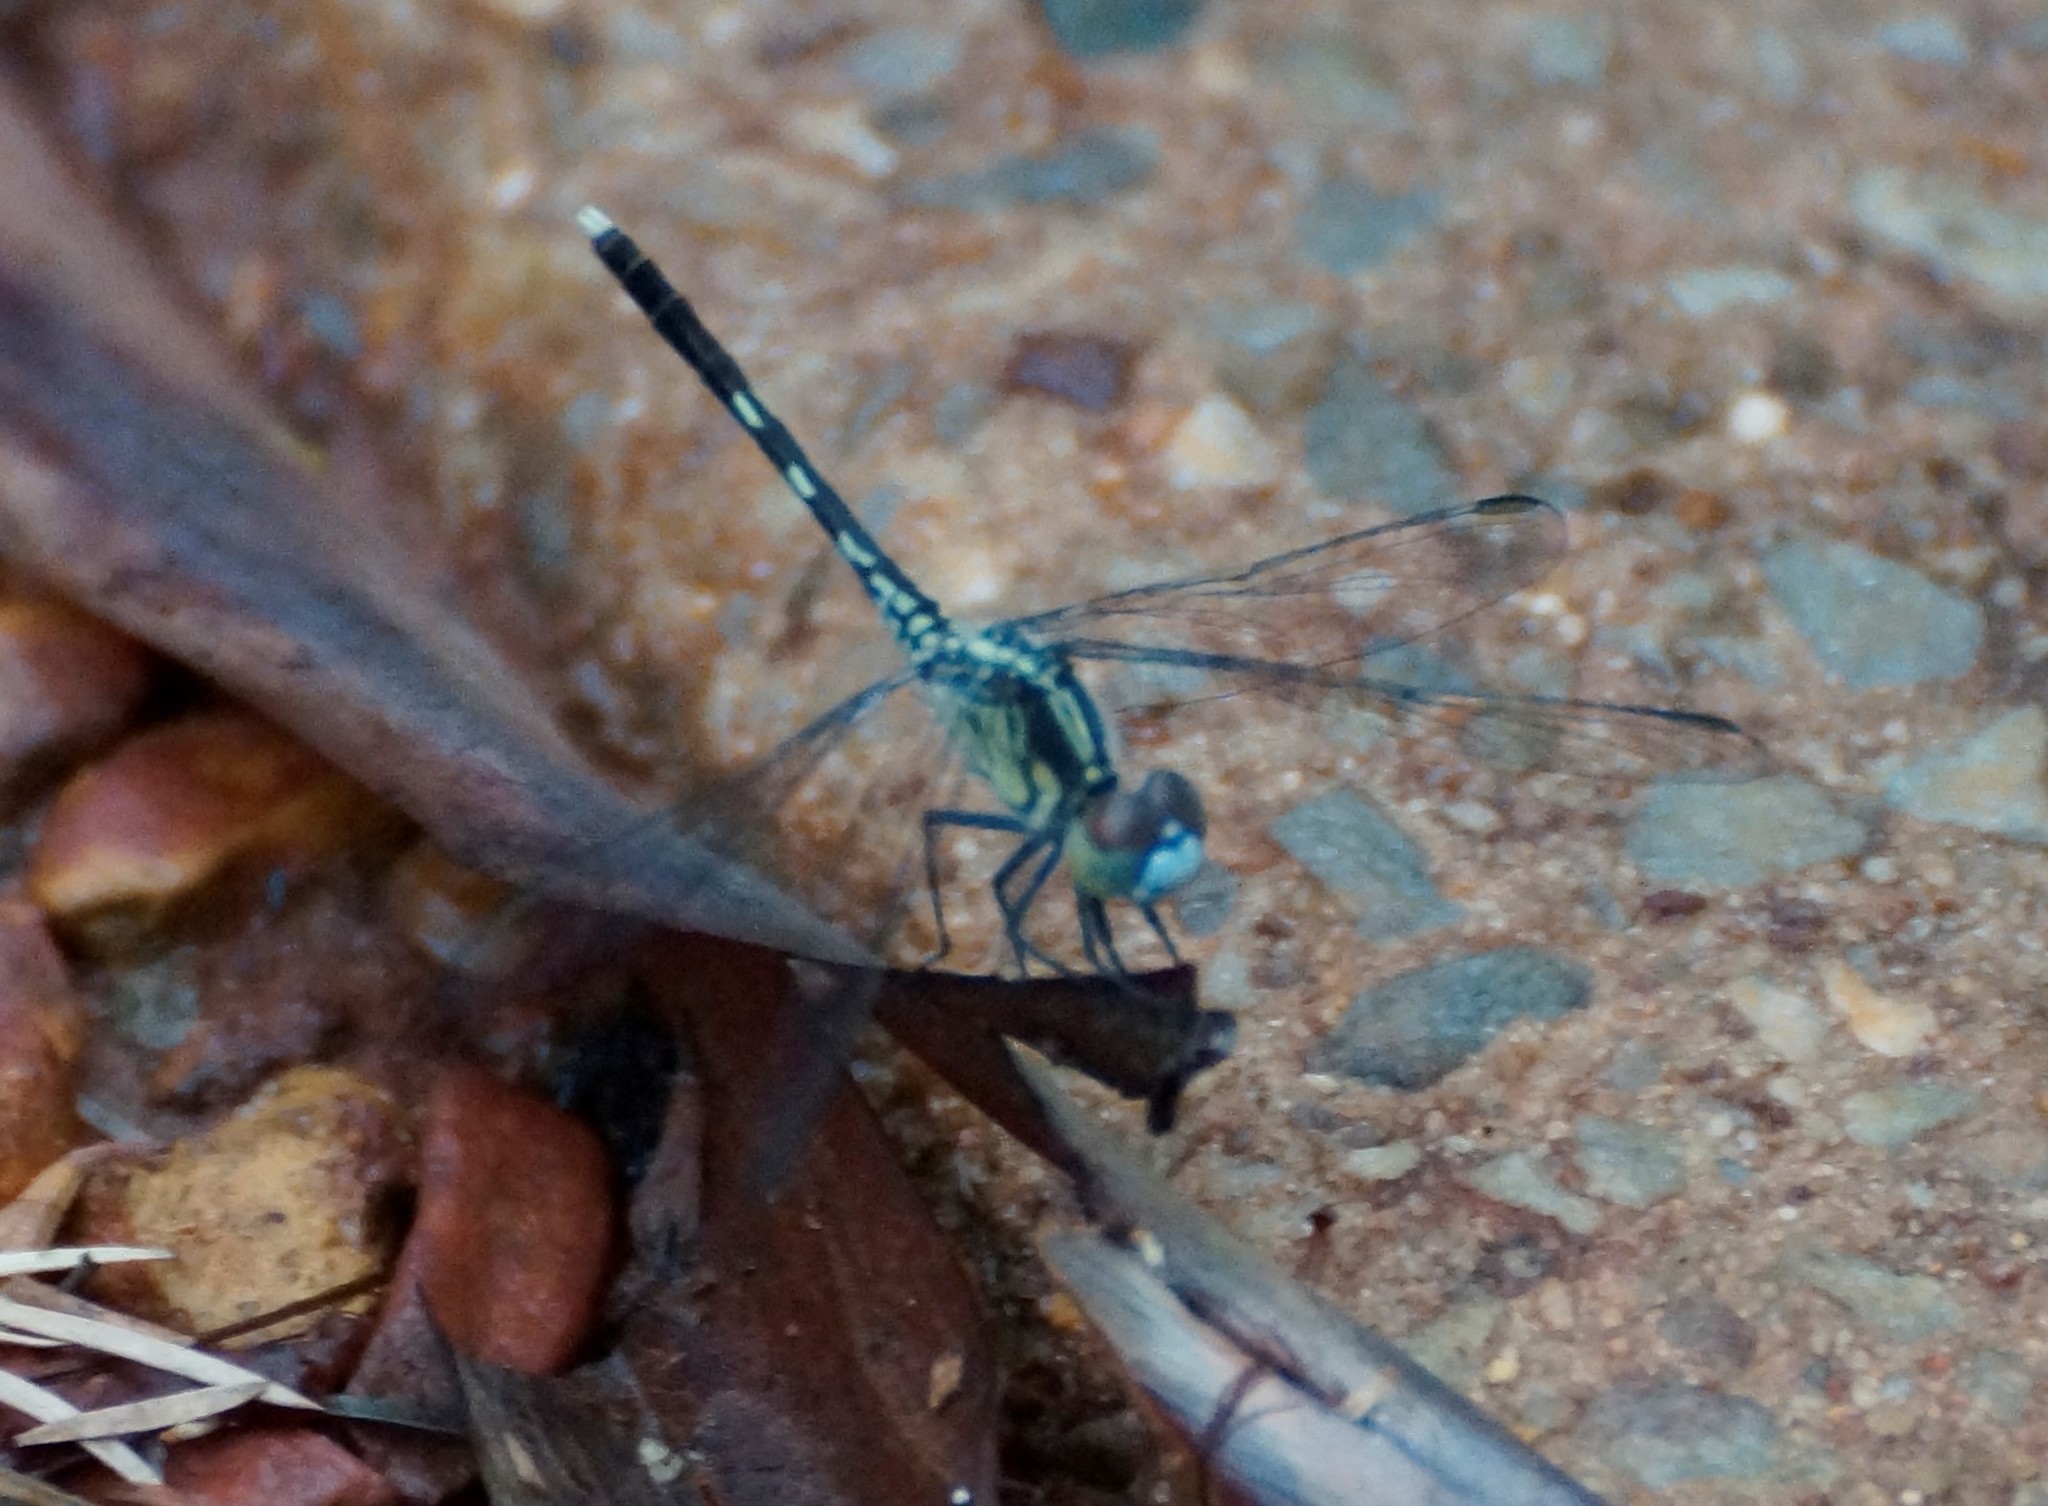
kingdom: Animalia
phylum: Arthropoda
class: Insecta
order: Odonata
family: Libellulidae
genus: Diplacodes
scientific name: Diplacodes trivialis
